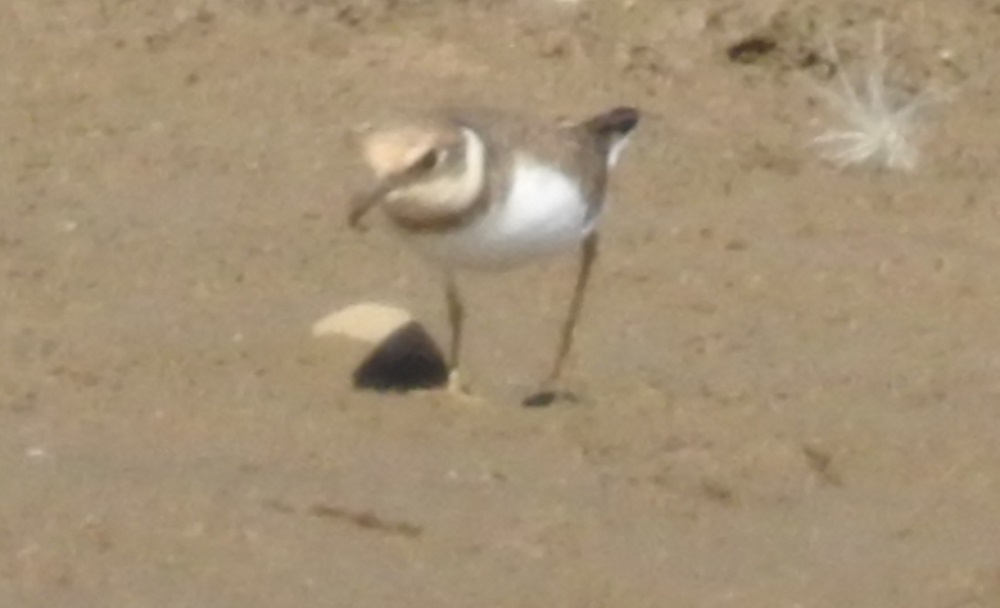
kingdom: Animalia
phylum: Chordata
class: Aves
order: Charadriiformes
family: Charadriidae
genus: Charadrius
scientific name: Charadrius dubius
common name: Little ringed plover
